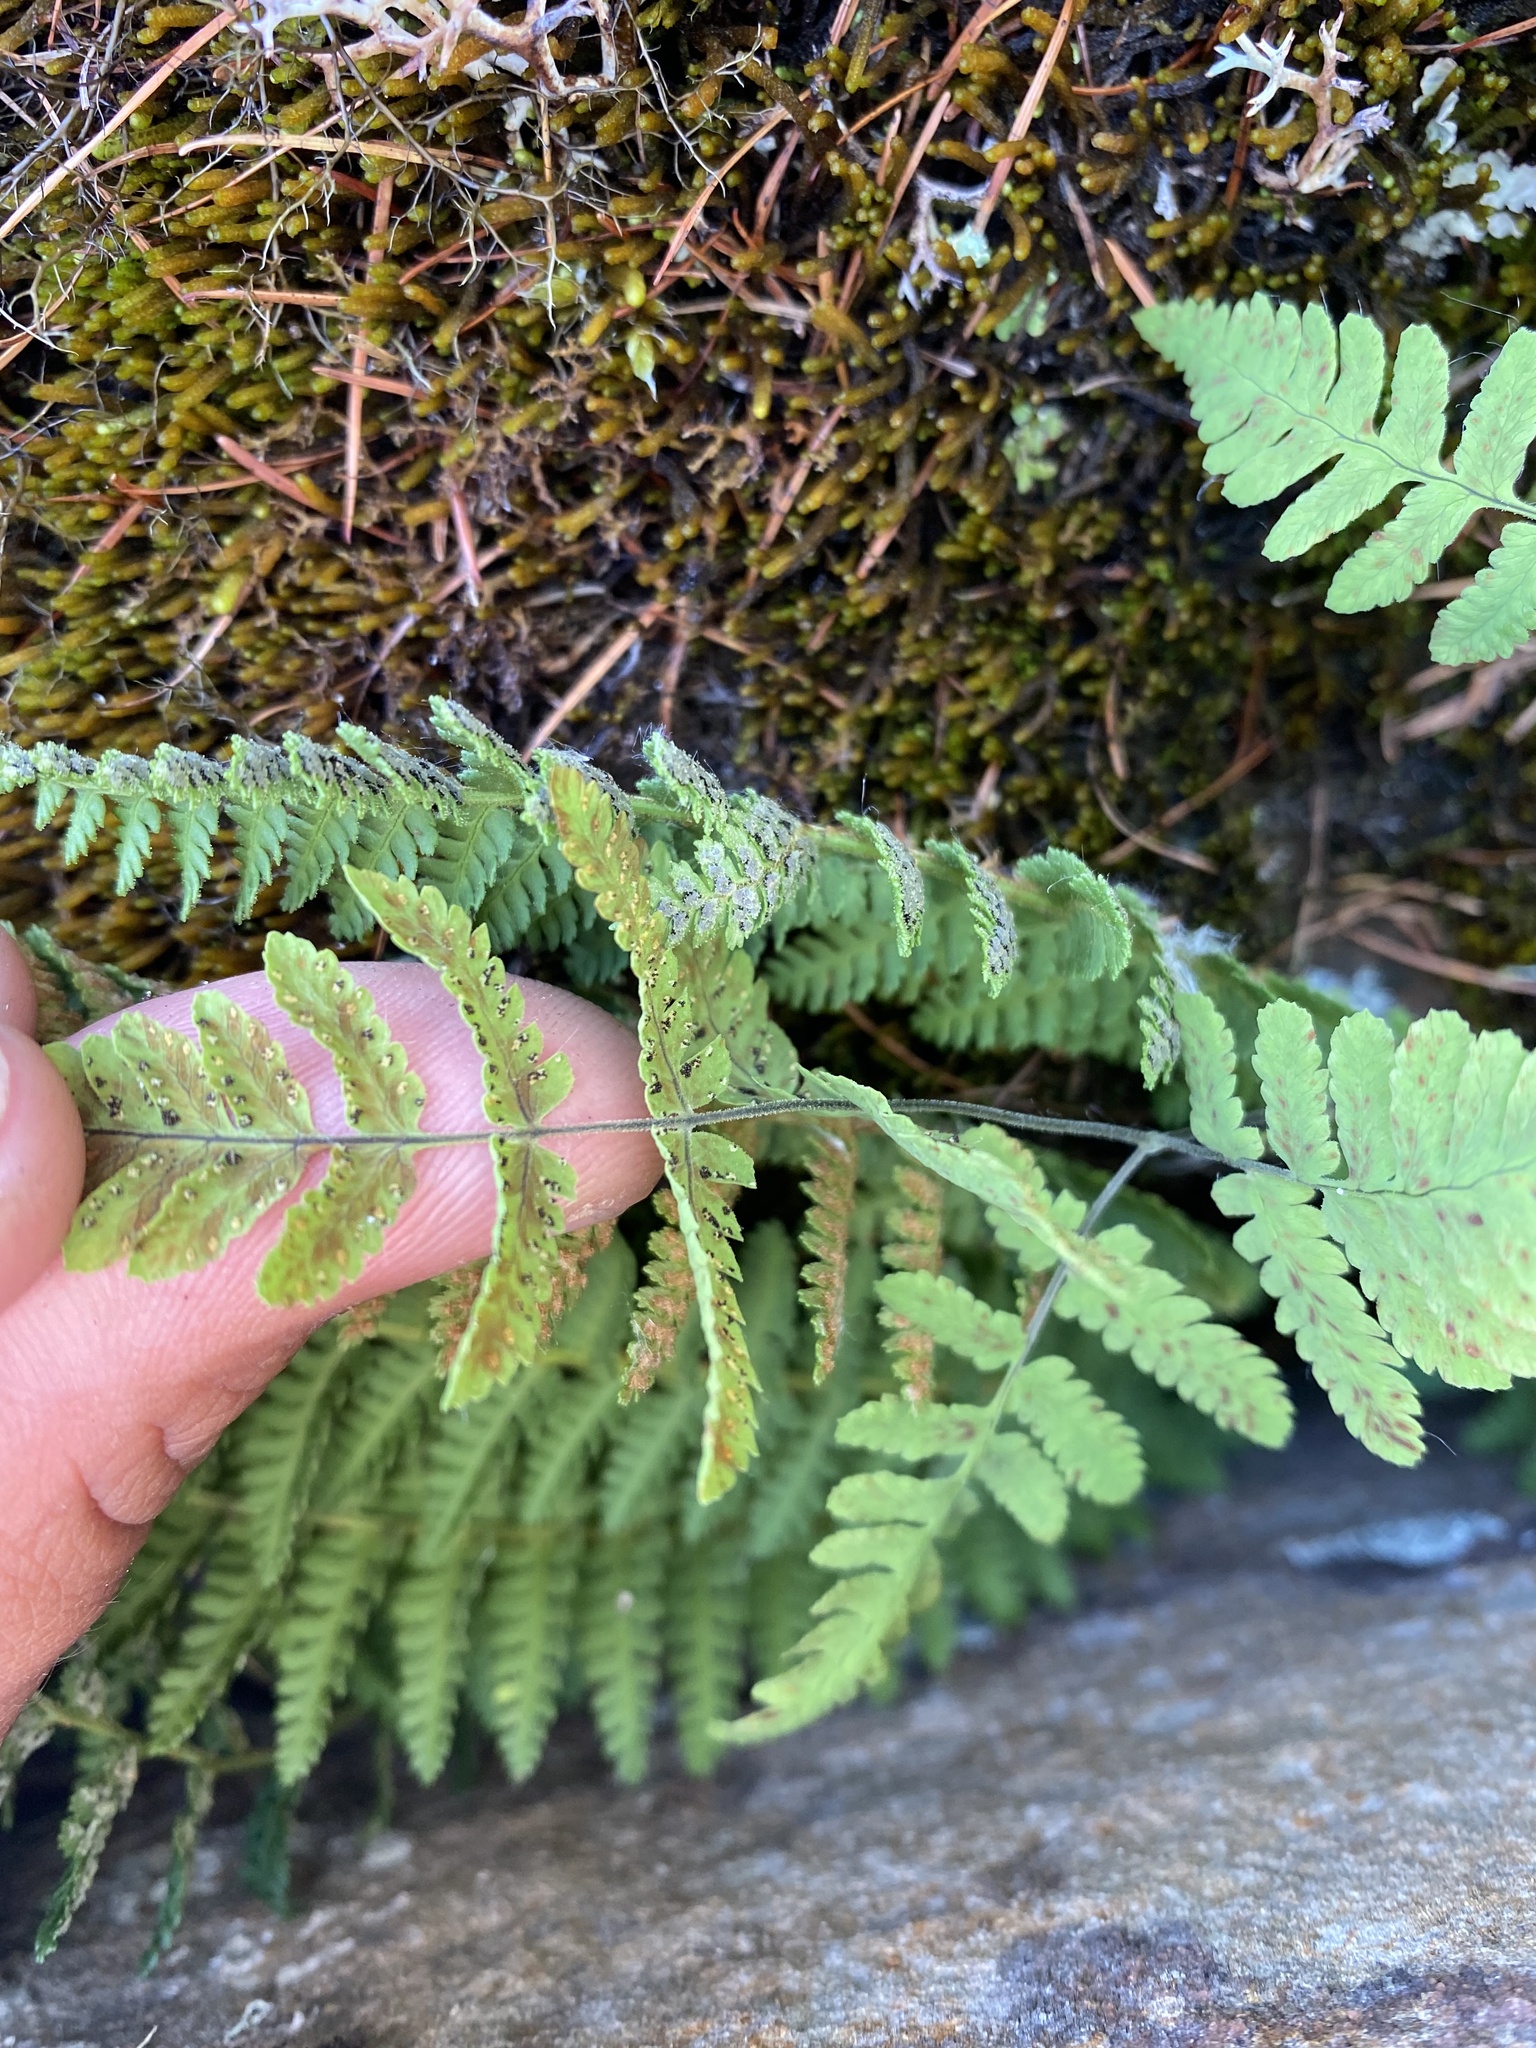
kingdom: Plantae
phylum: Tracheophyta
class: Polypodiopsida
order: Polypodiales
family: Cystopteridaceae
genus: Gymnocarpium
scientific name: Gymnocarpium jessoense
